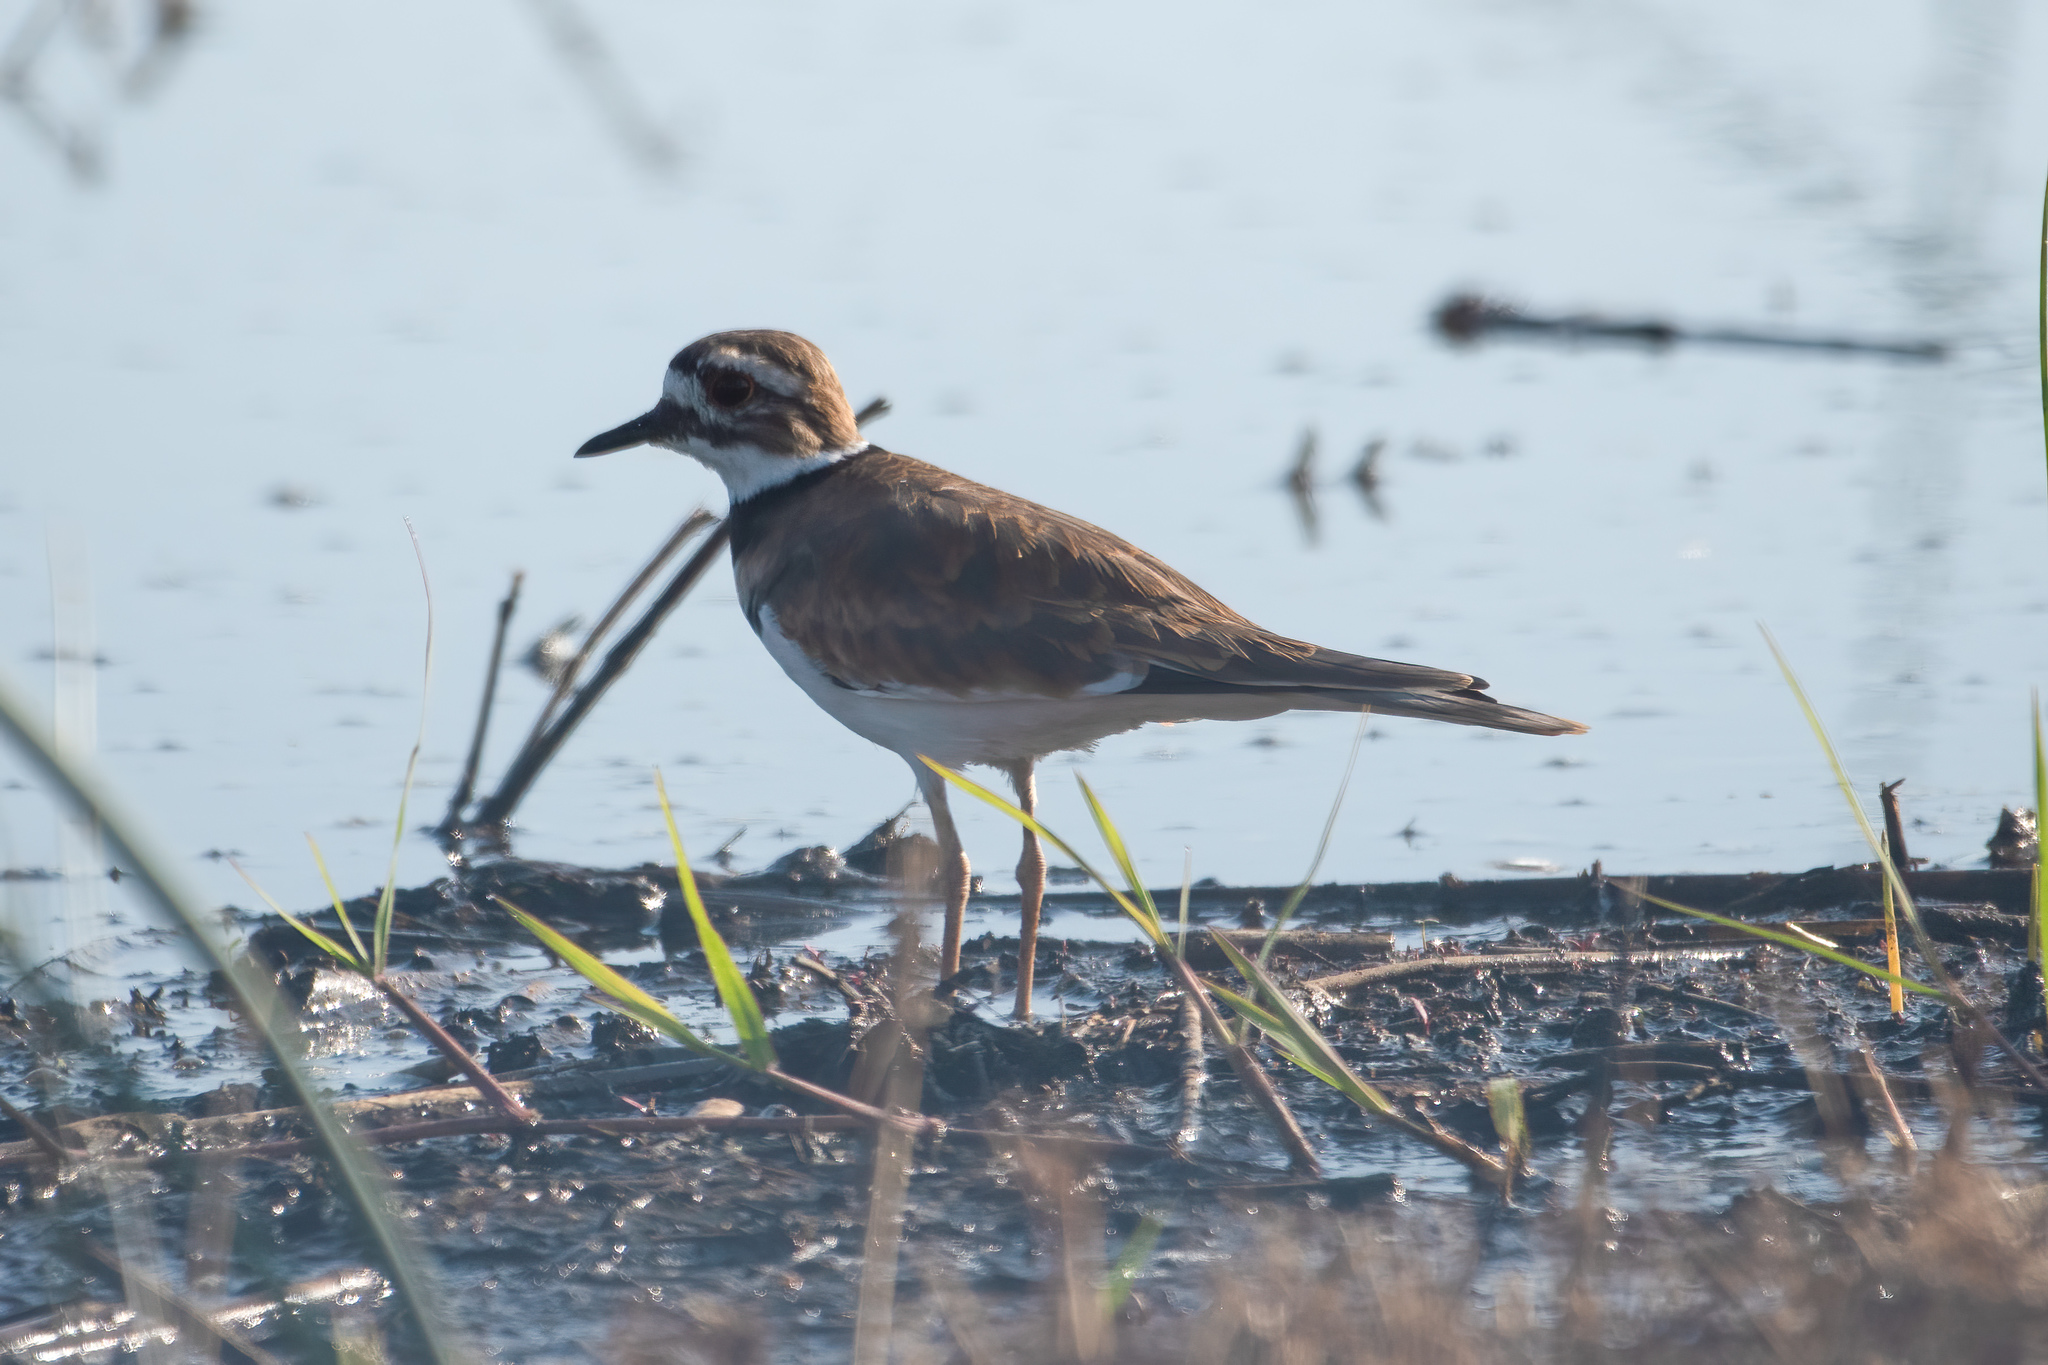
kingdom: Animalia
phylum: Chordata
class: Aves
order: Charadriiformes
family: Charadriidae
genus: Charadrius
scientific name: Charadrius vociferus
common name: Killdeer
